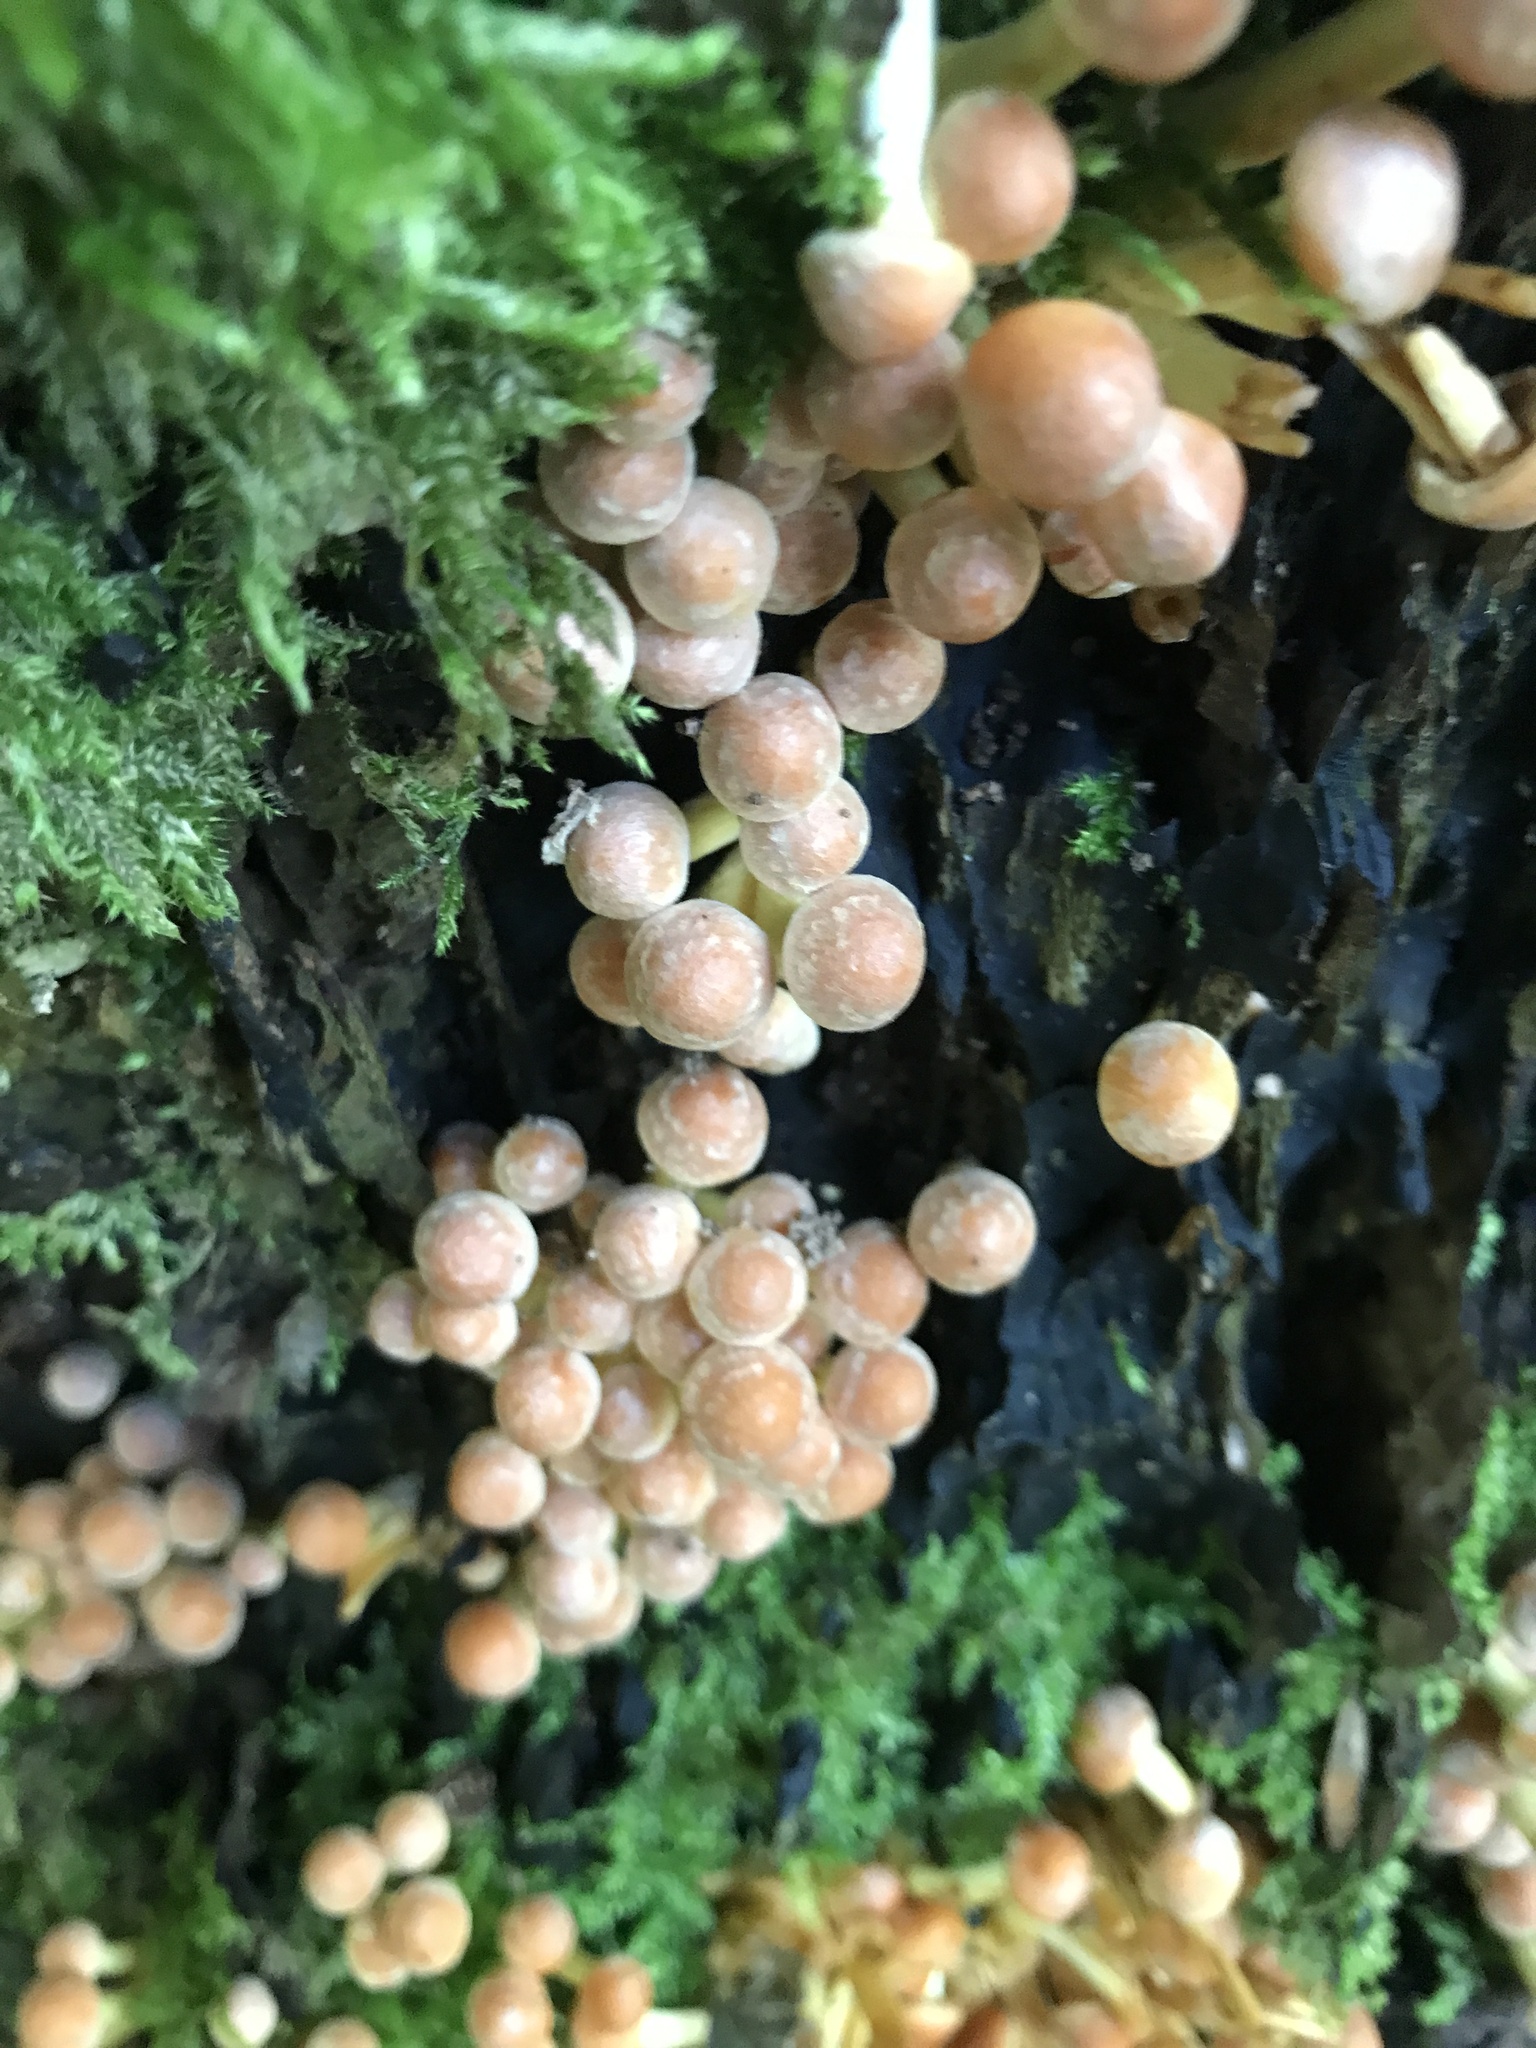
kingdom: Fungi
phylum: Basidiomycota
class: Agaricomycetes
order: Agaricales
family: Strophariaceae
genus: Hypholoma
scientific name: Hypholoma fasciculare
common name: Sulphur tuft
